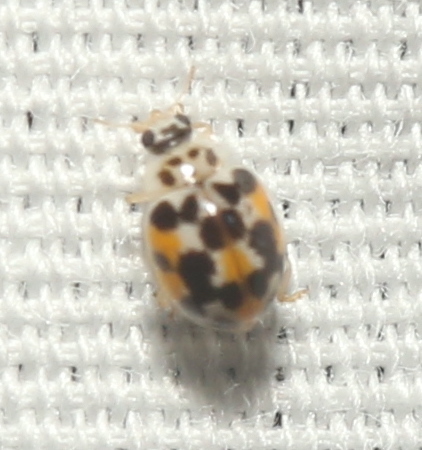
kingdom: Animalia
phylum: Arthropoda
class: Insecta
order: Coleoptera
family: Coccinellidae
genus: Psyllobora
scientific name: Psyllobora vigintimaculata
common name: Ladybird beetle
